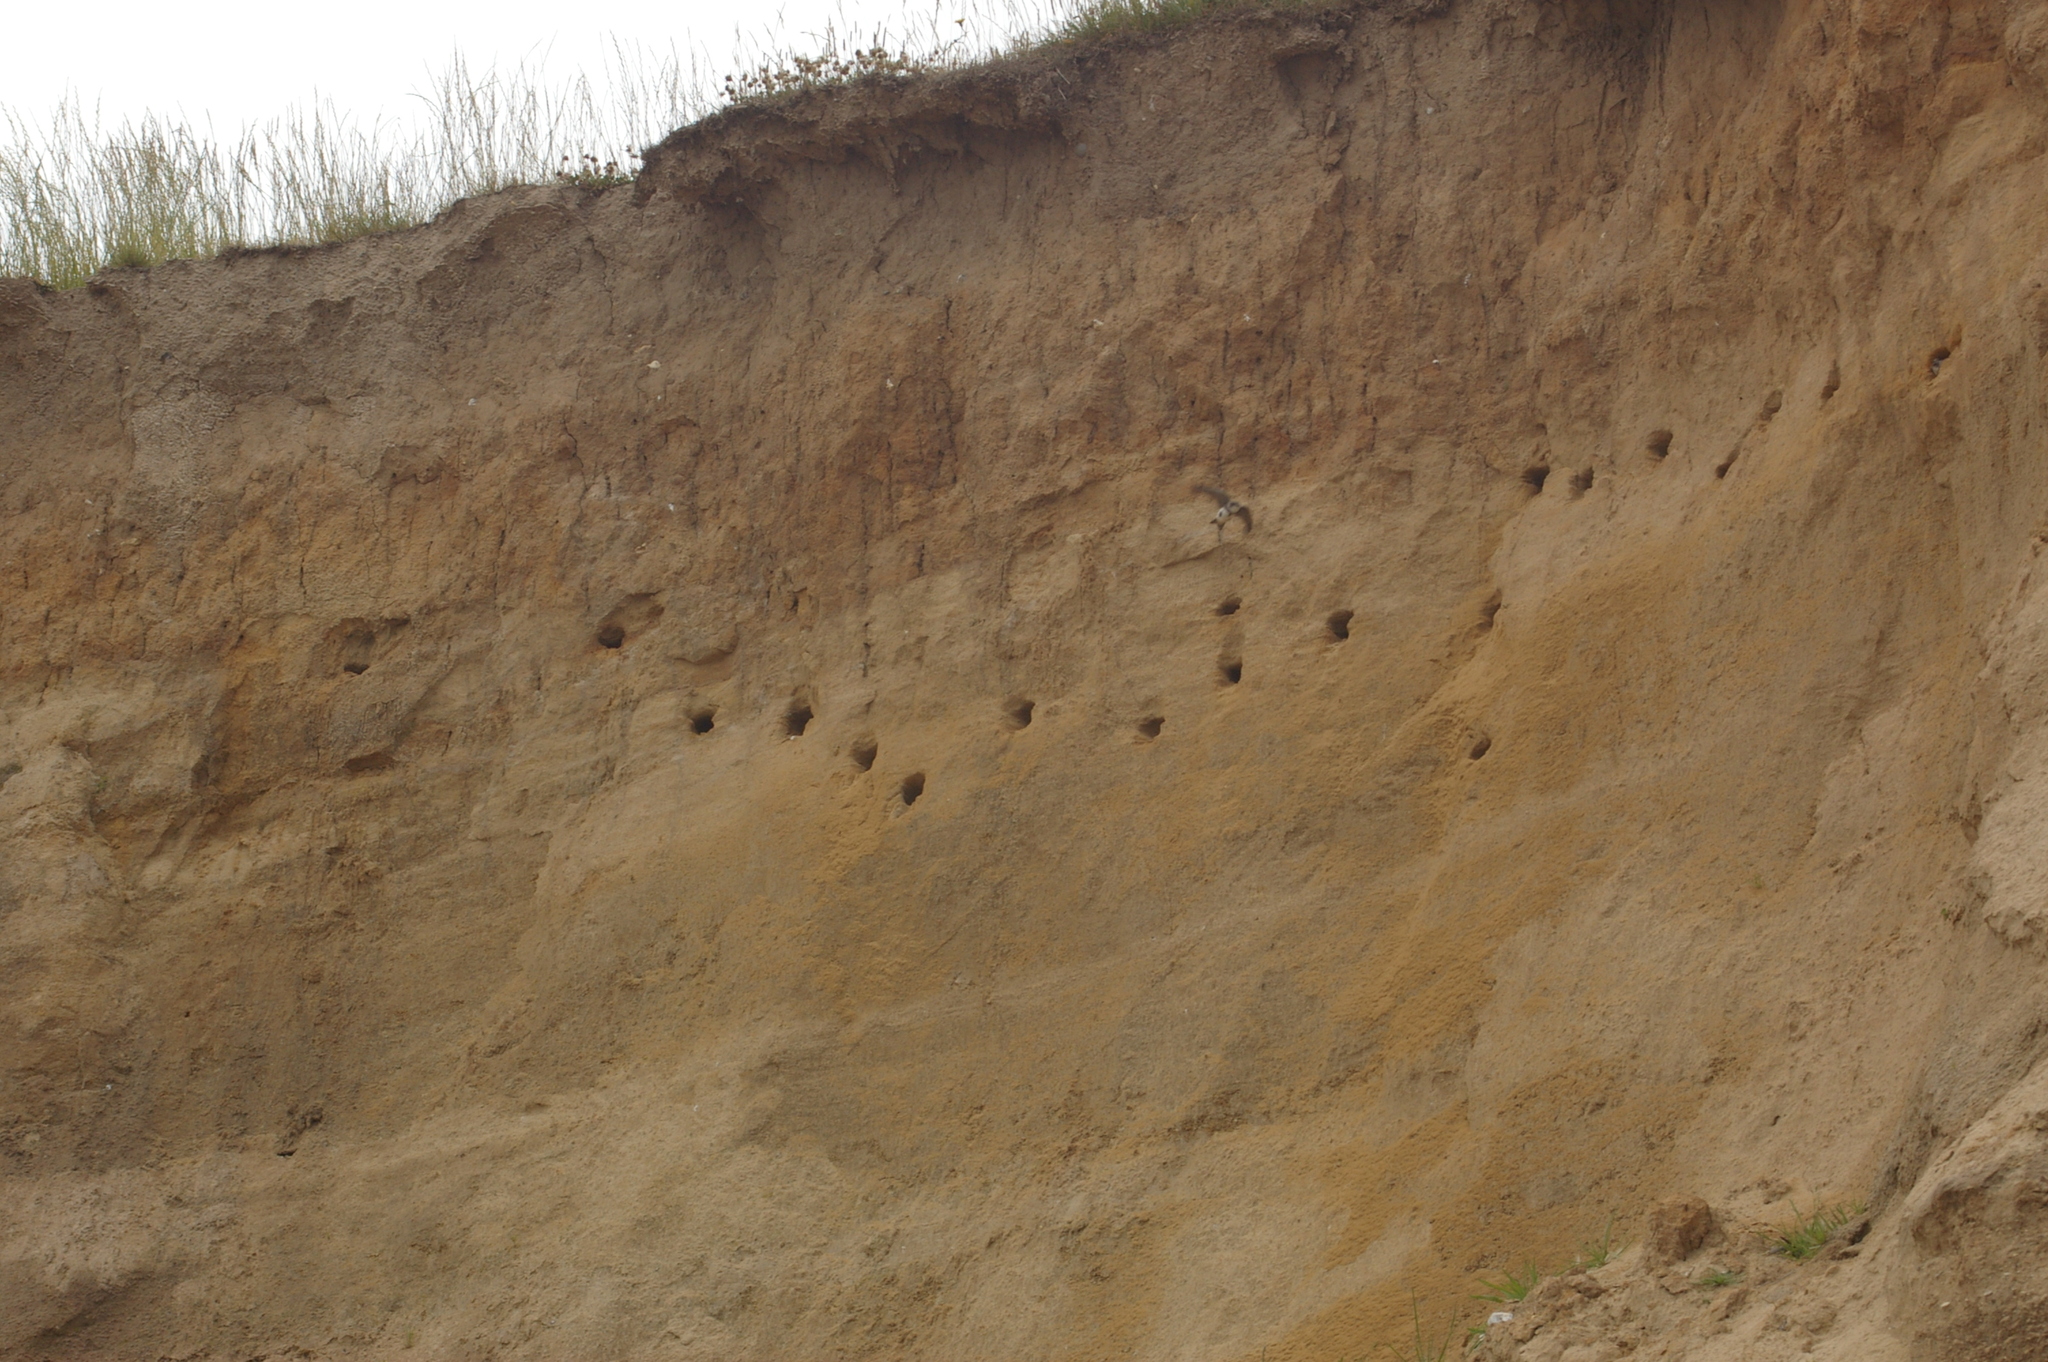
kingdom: Animalia
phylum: Chordata
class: Aves
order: Passeriformes
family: Hirundinidae
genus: Riparia
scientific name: Riparia riparia
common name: Sand martin
